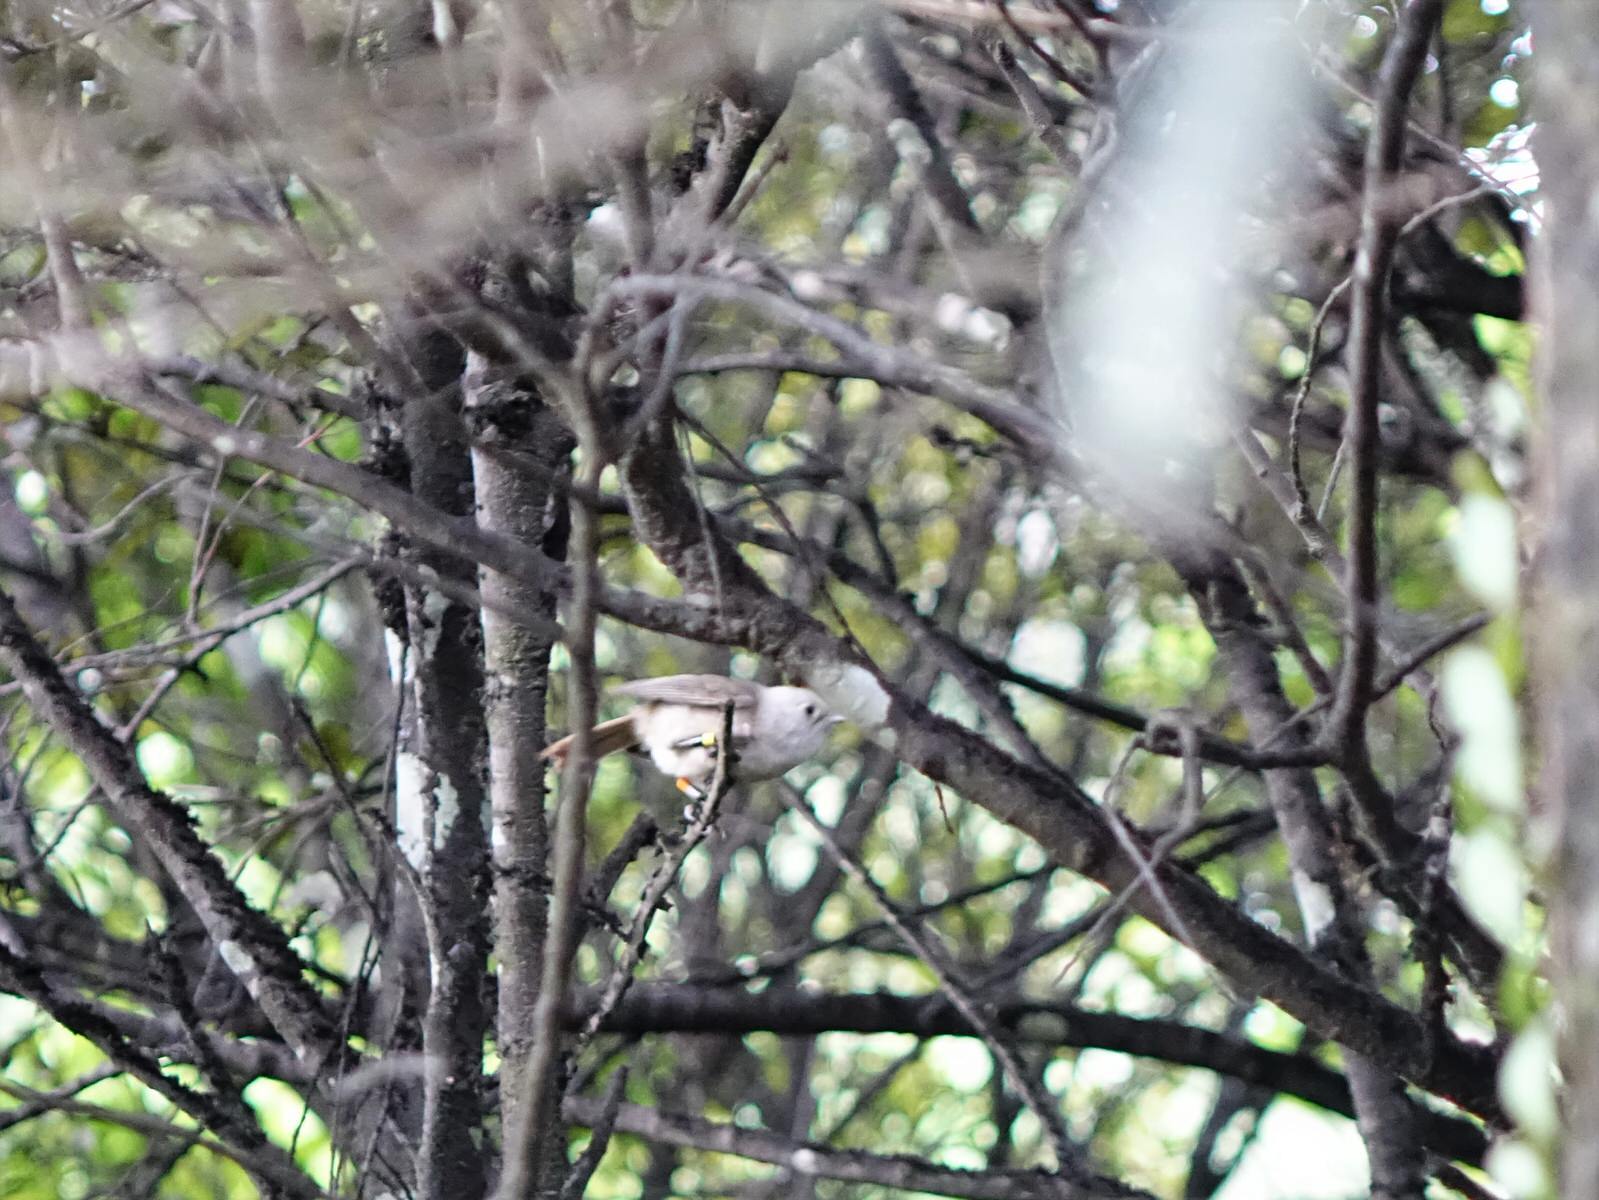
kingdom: Animalia
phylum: Chordata
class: Aves
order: Passeriformes
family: Acanthizidae
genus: Mohoua
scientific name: Mohoua albicilla
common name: Whitehead
